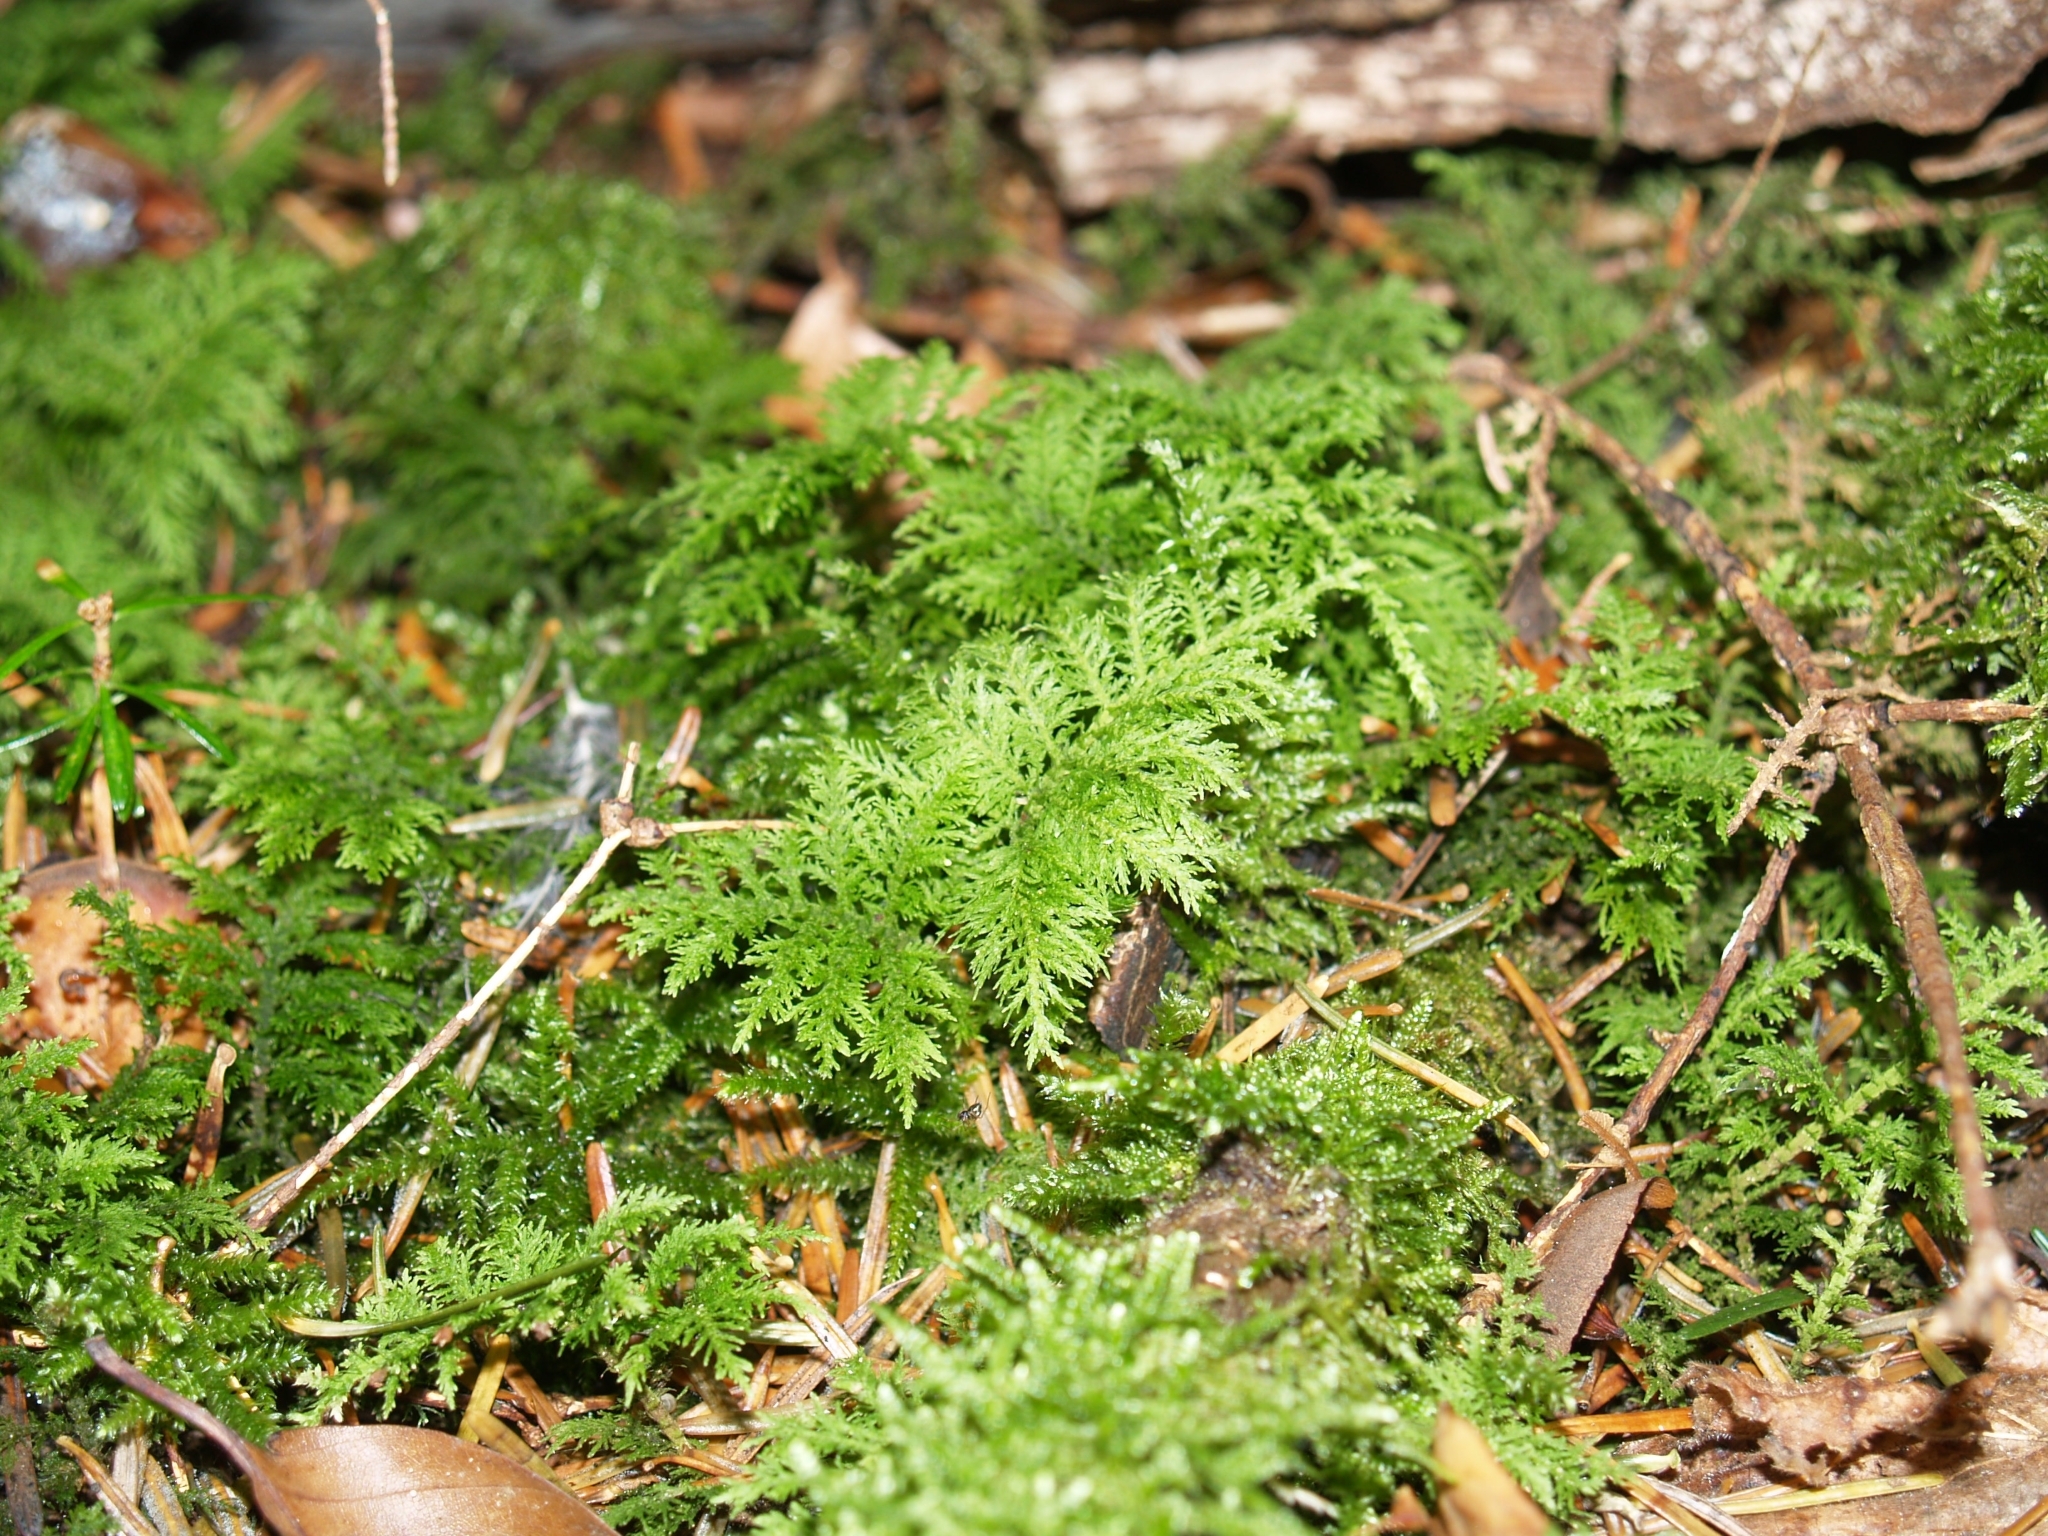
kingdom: Plantae
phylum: Bryophyta
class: Bryopsida
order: Hypnales
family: Thuidiaceae
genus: Thuidium
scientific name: Thuidium tamariscinum
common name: Common tamarisk-moss
